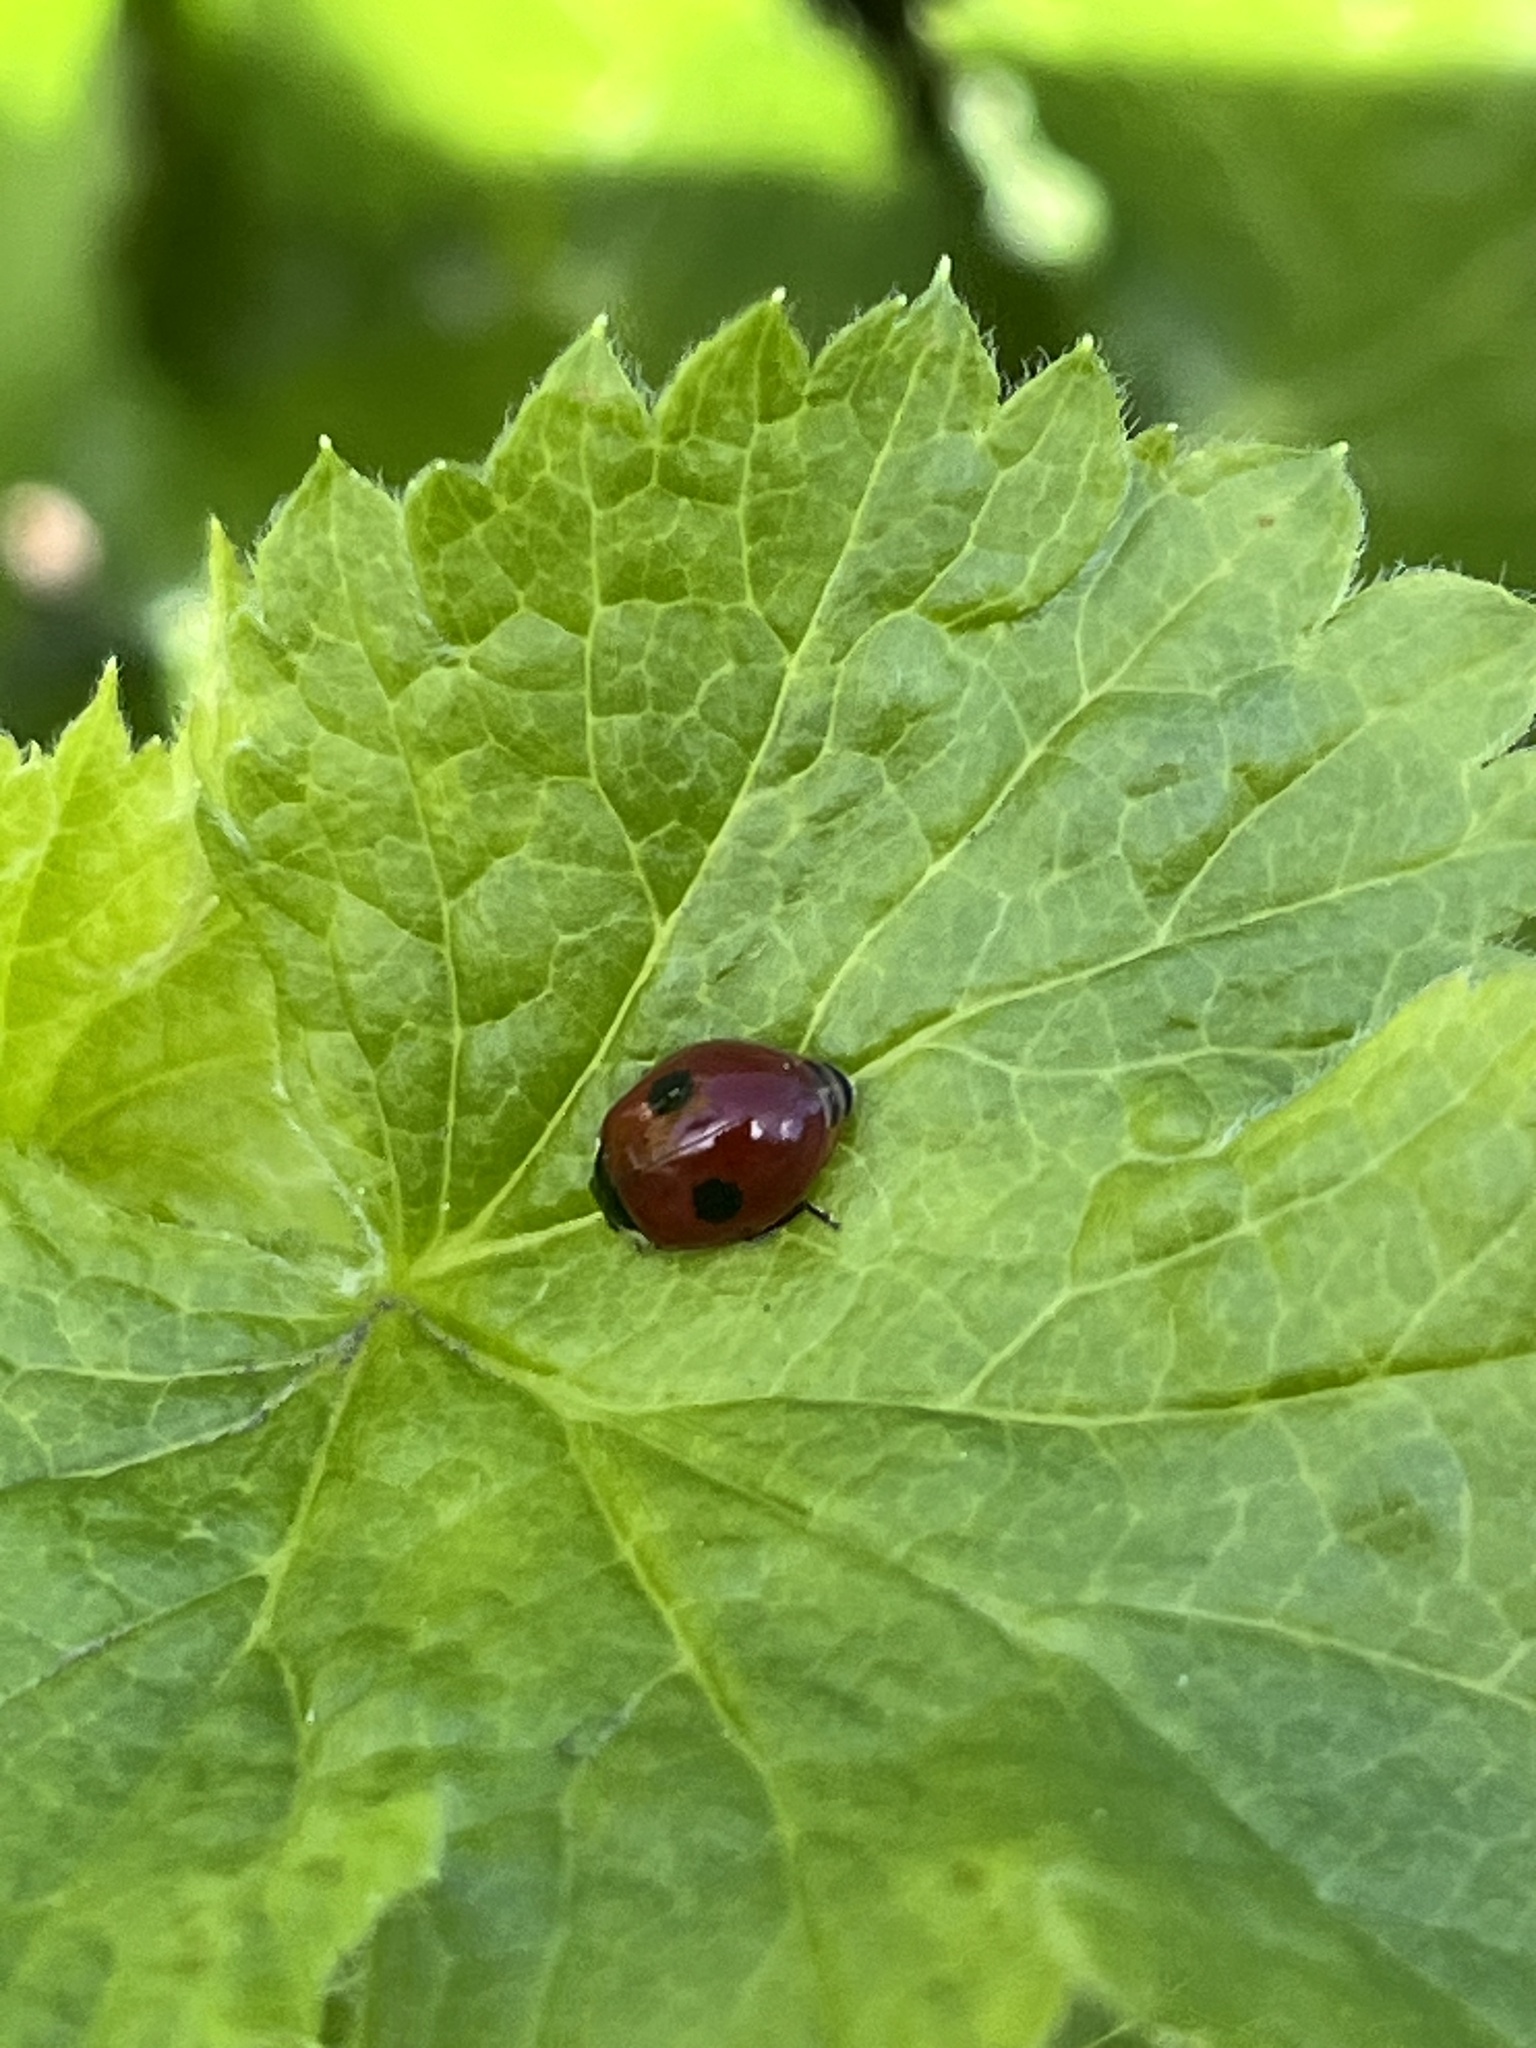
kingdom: Animalia
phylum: Arthropoda
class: Insecta
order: Coleoptera
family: Coccinellidae
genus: Adalia
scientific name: Adalia bipunctata
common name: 2-spot ladybird
